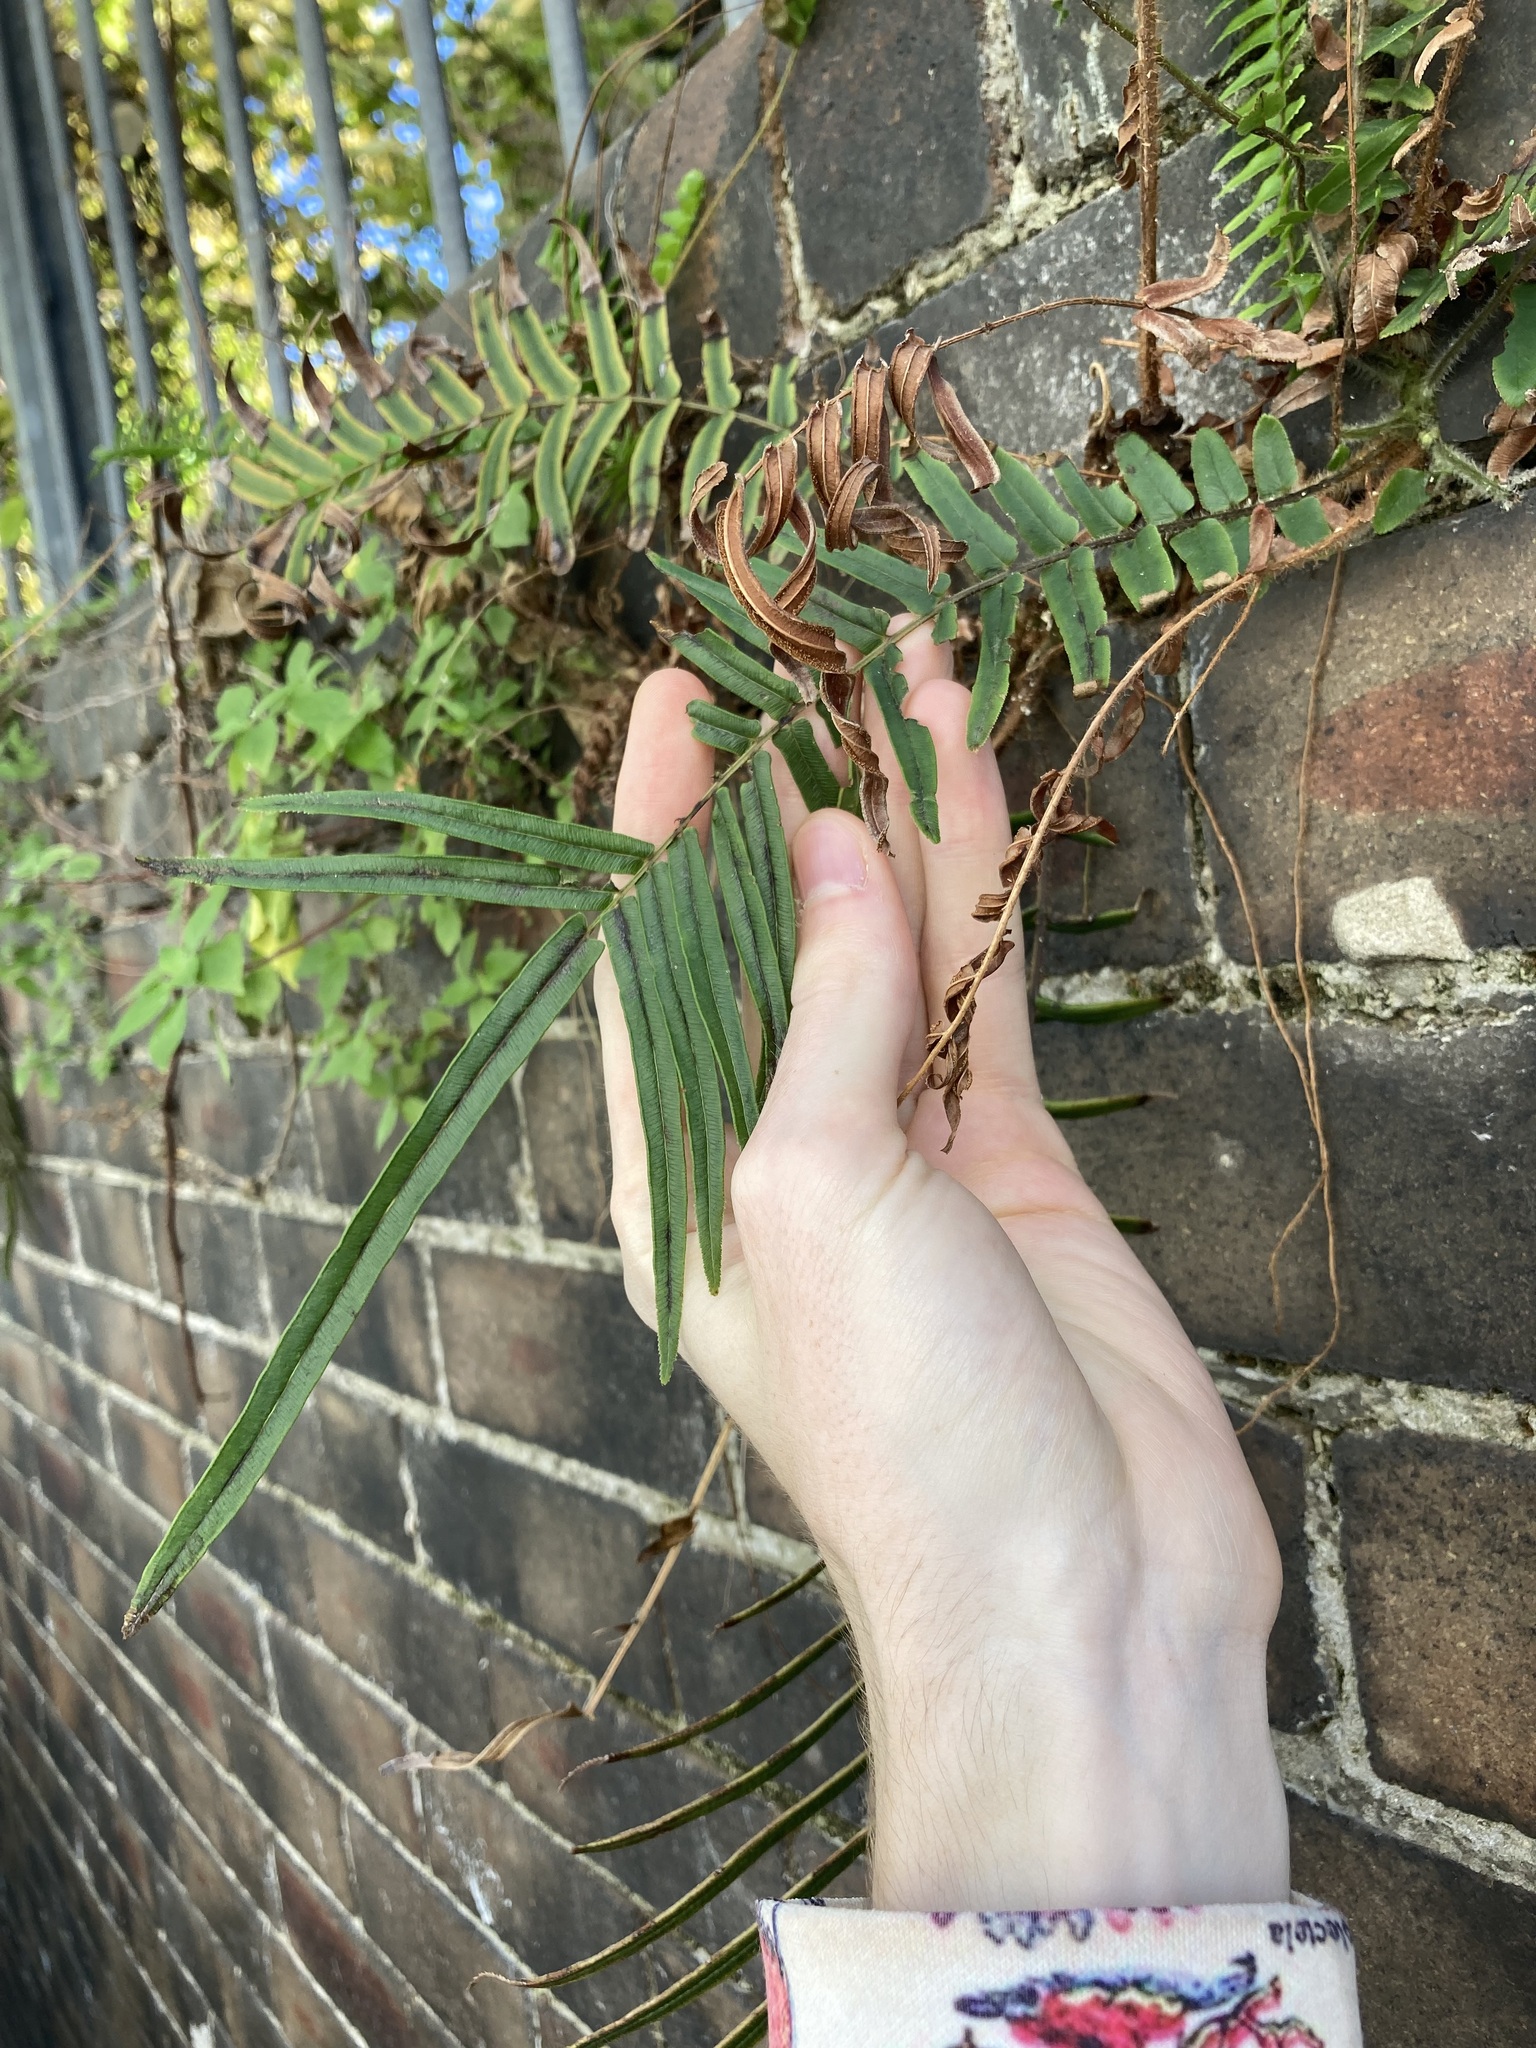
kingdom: Plantae
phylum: Tracheophyta
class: Polypodiopsida
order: Polypodiales
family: Pteridaceae
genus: Pteris
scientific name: Pteris vittata
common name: Ladder brake
